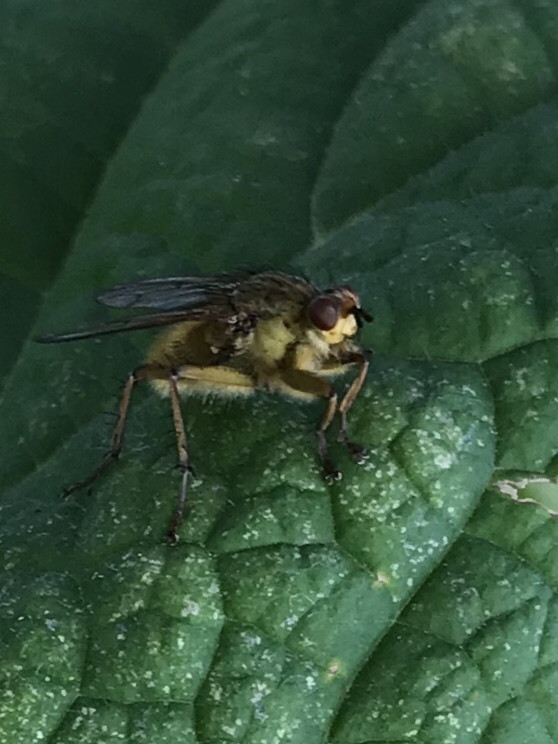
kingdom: Animalia
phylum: Arthropoda
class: Insecta
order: Diptera
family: Scathophagidae
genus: Scathophaga
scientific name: Scathophaga stercoraria
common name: Yellow dung fly
